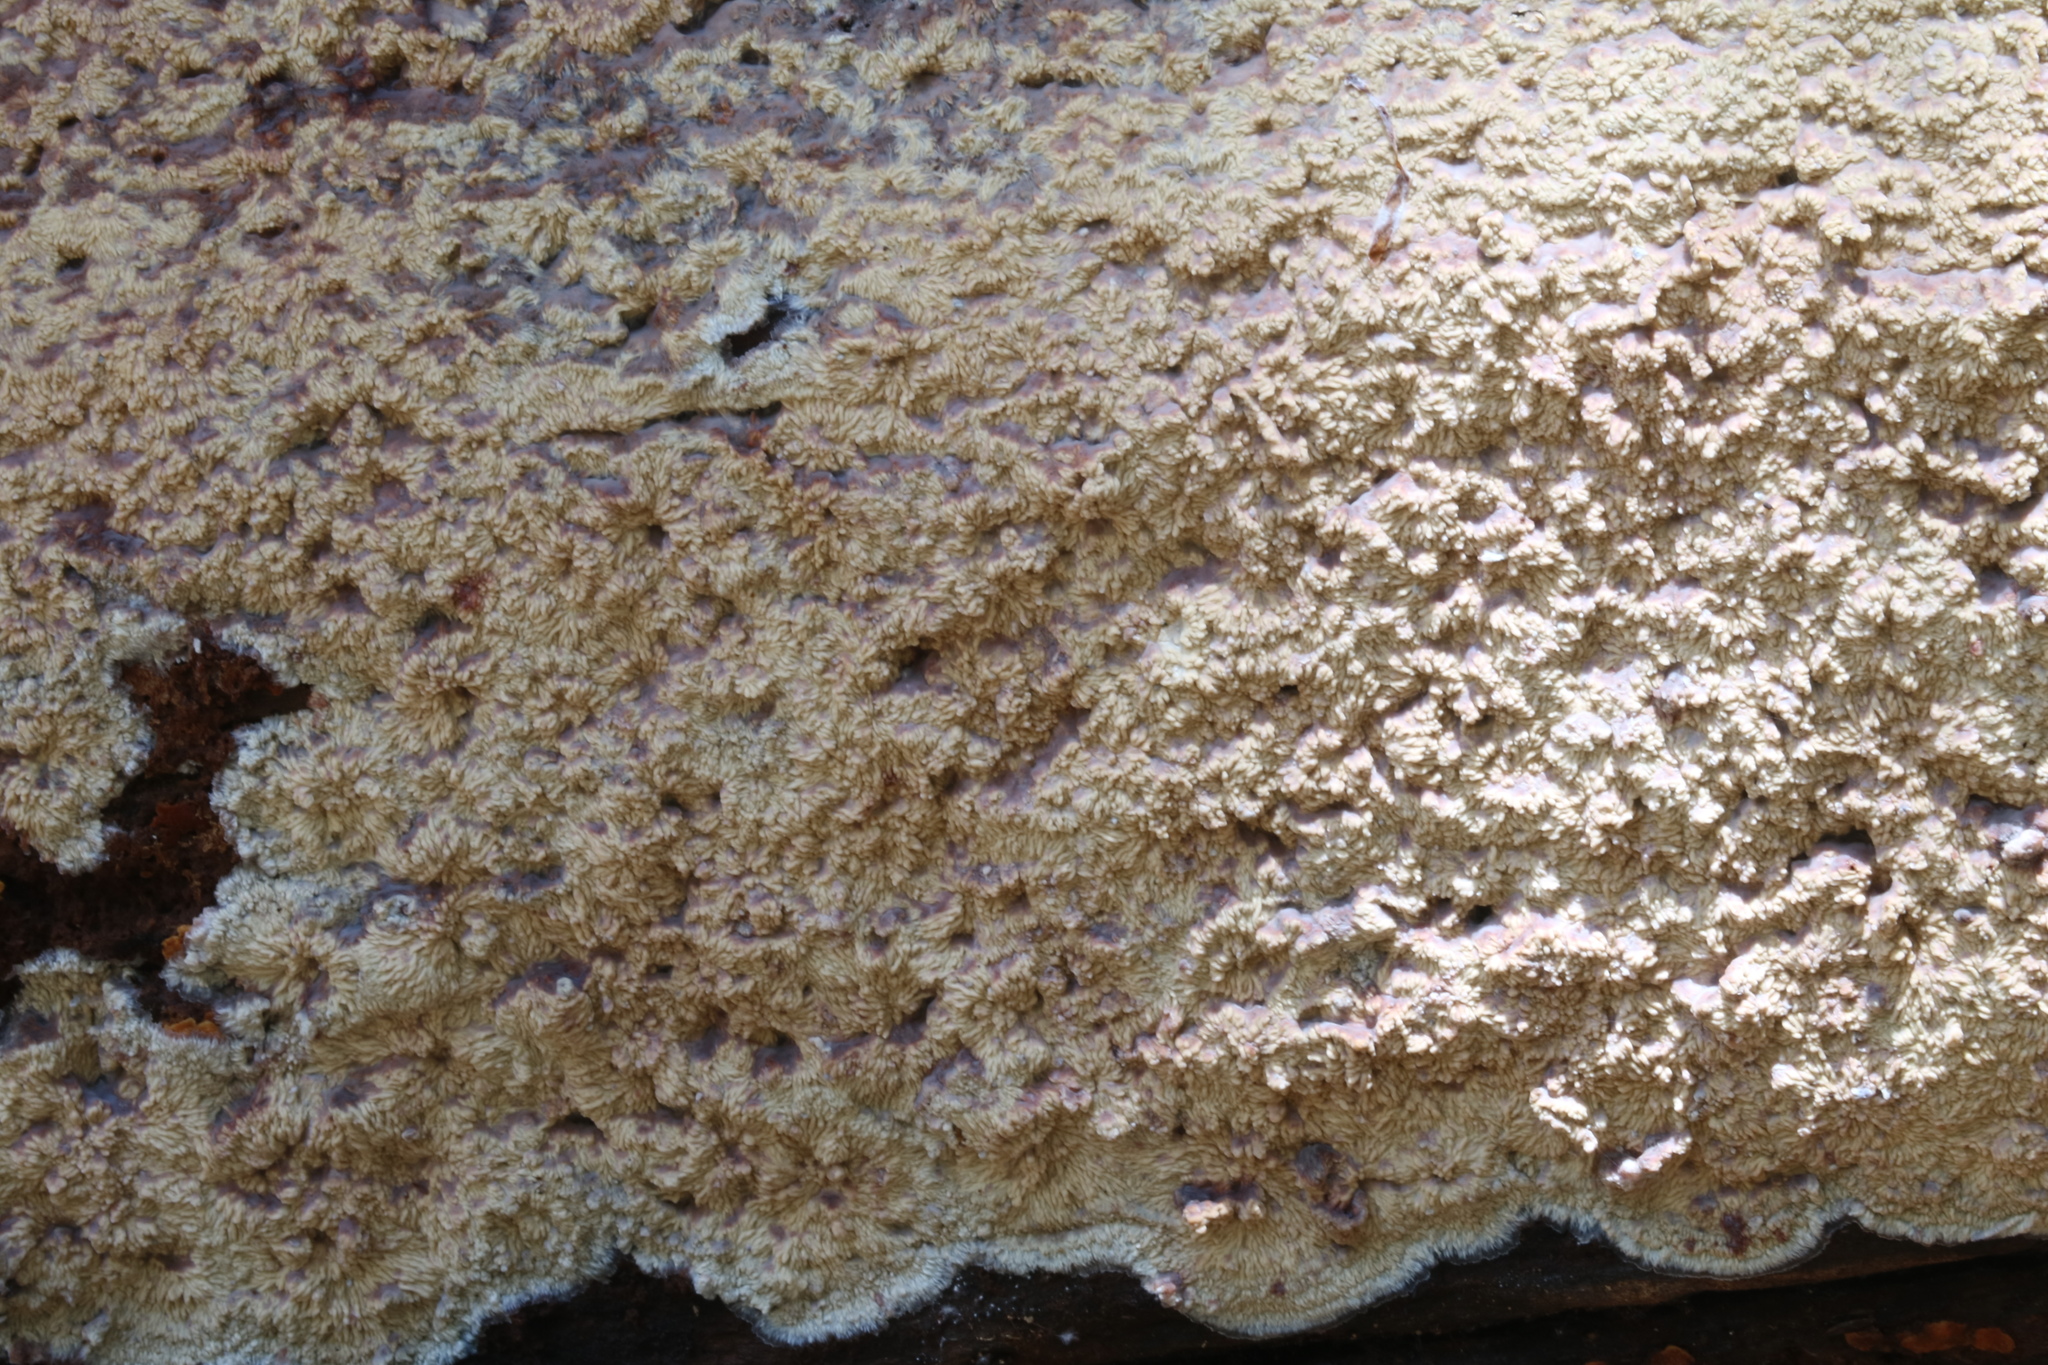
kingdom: Fungi
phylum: Basidiomycota
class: Agaricomycetes
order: Polyporales
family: Meruliaceae
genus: Phlebia
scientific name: Phlebia tremellosa
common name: Jelly rot
